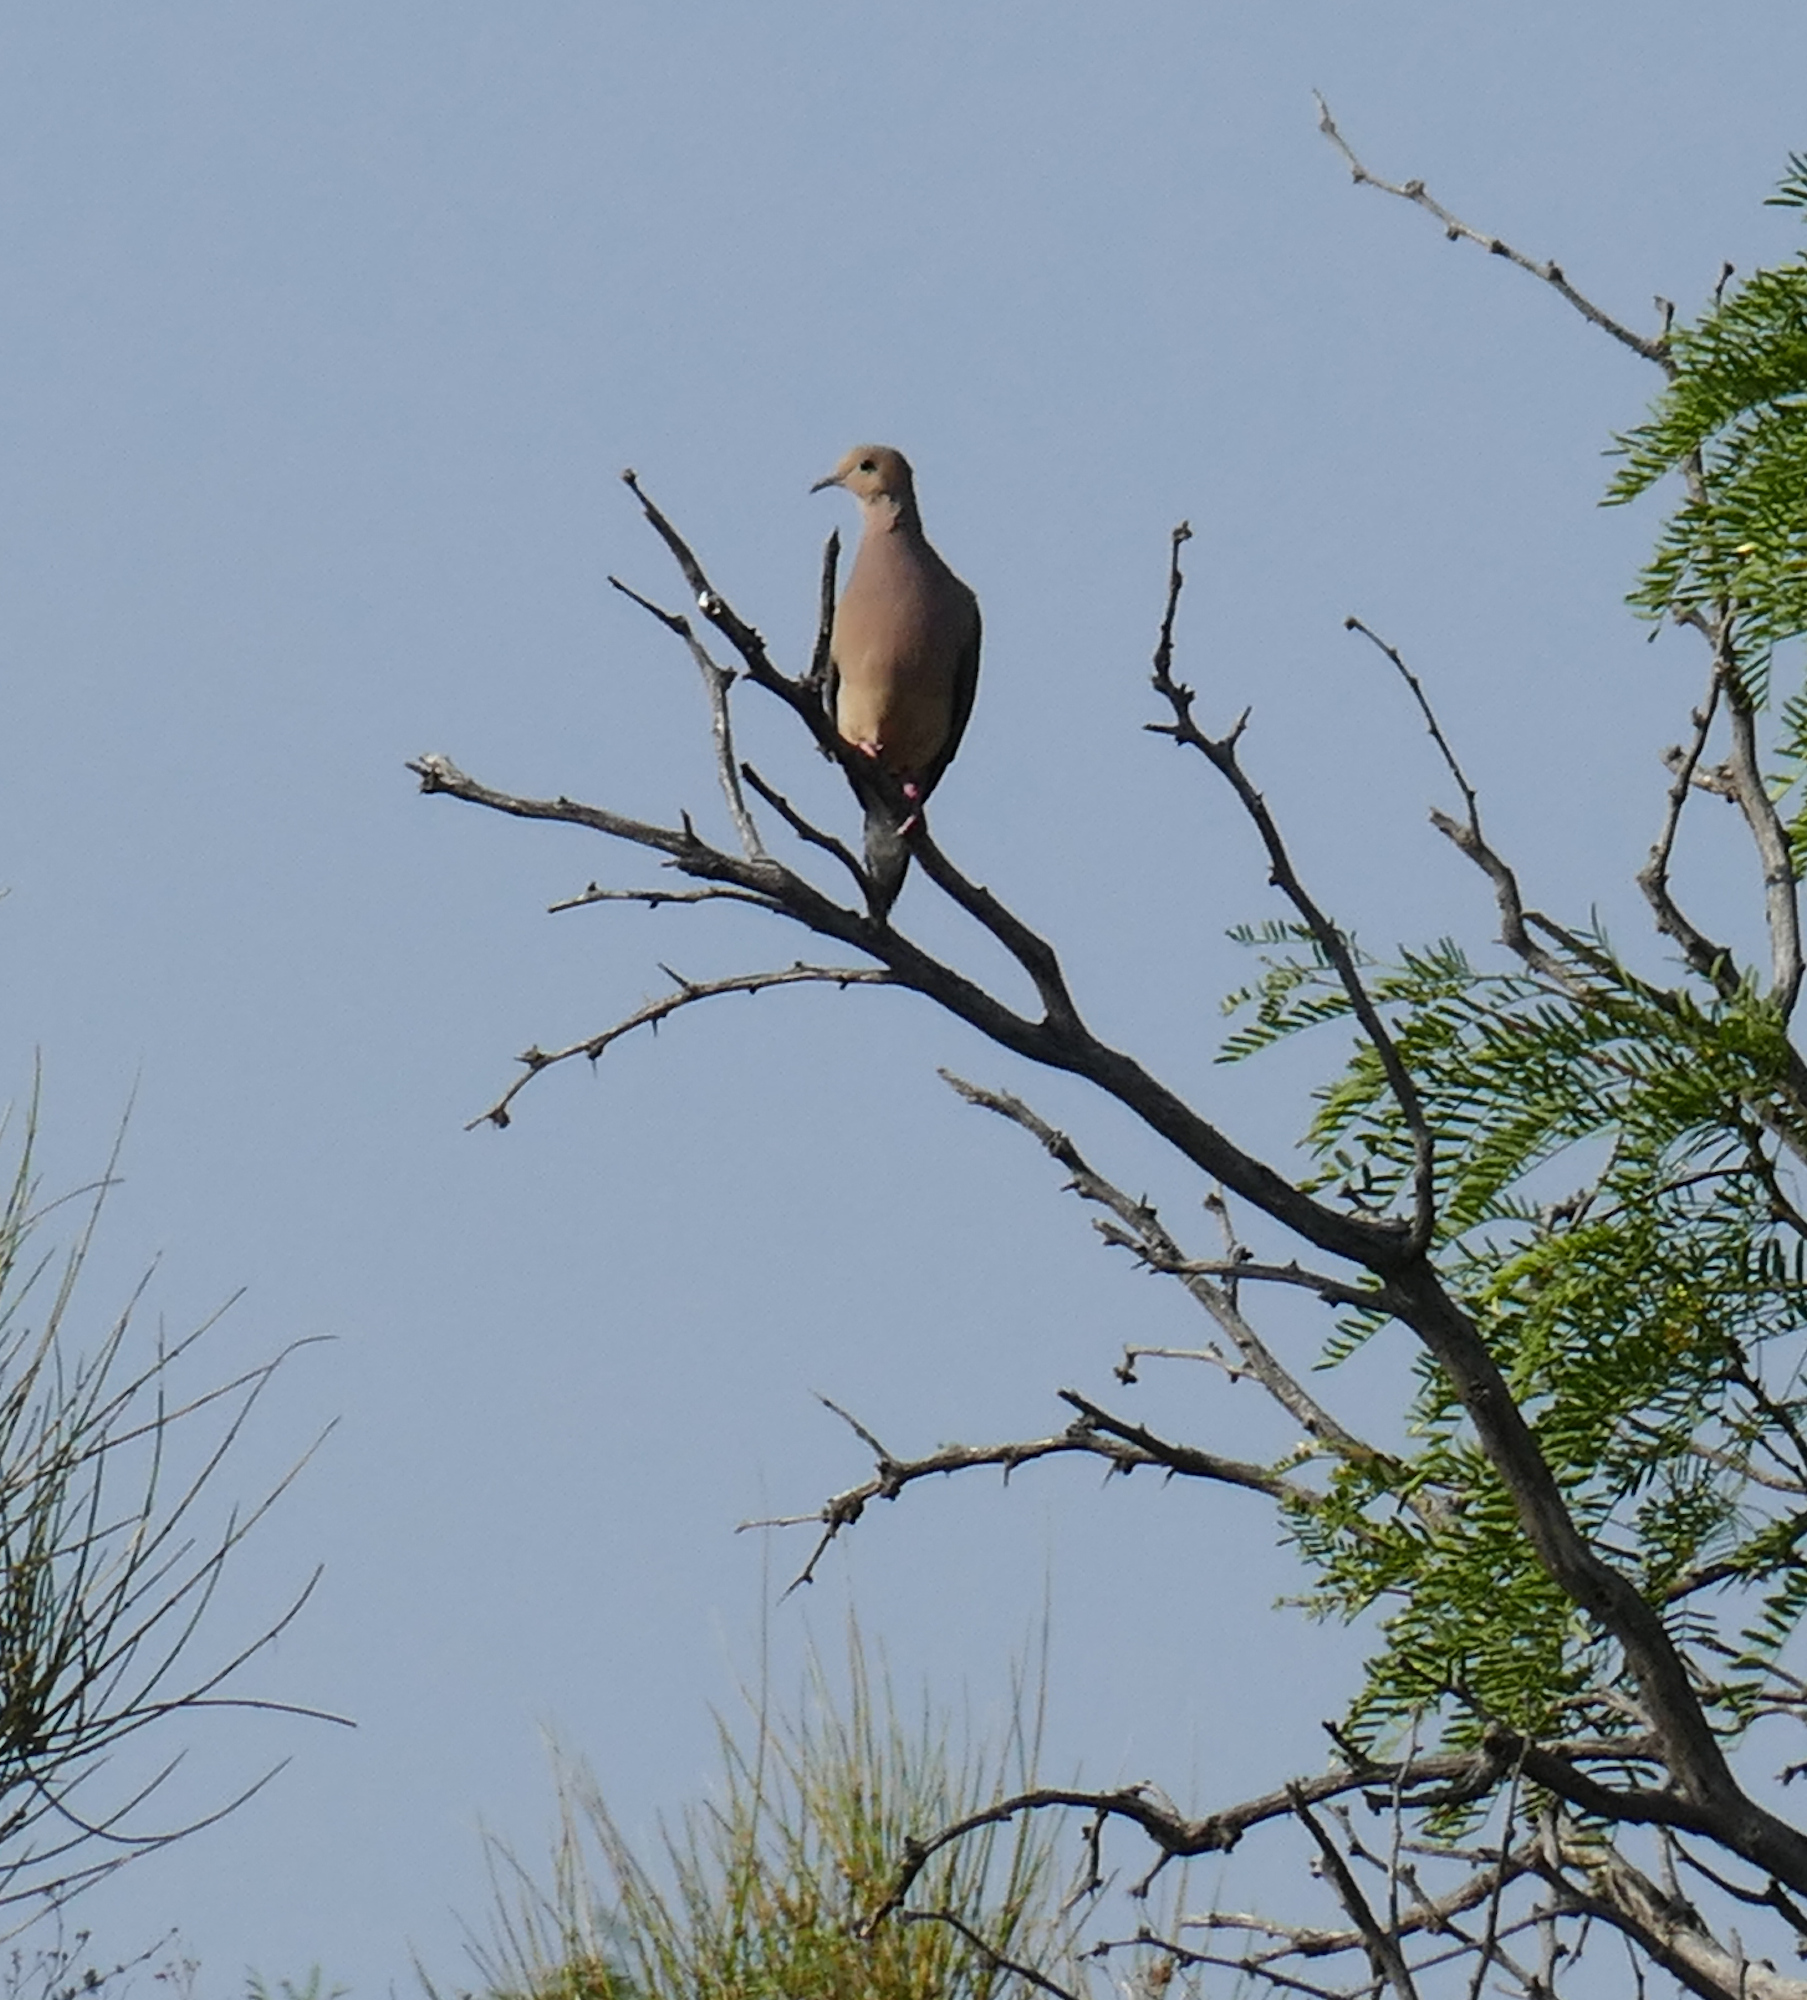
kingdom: Animalia
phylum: Chordata
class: Aves
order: Columbiformes
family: Columbidae
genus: Zenaida
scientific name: Zenaida macroura
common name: Mourning dove
